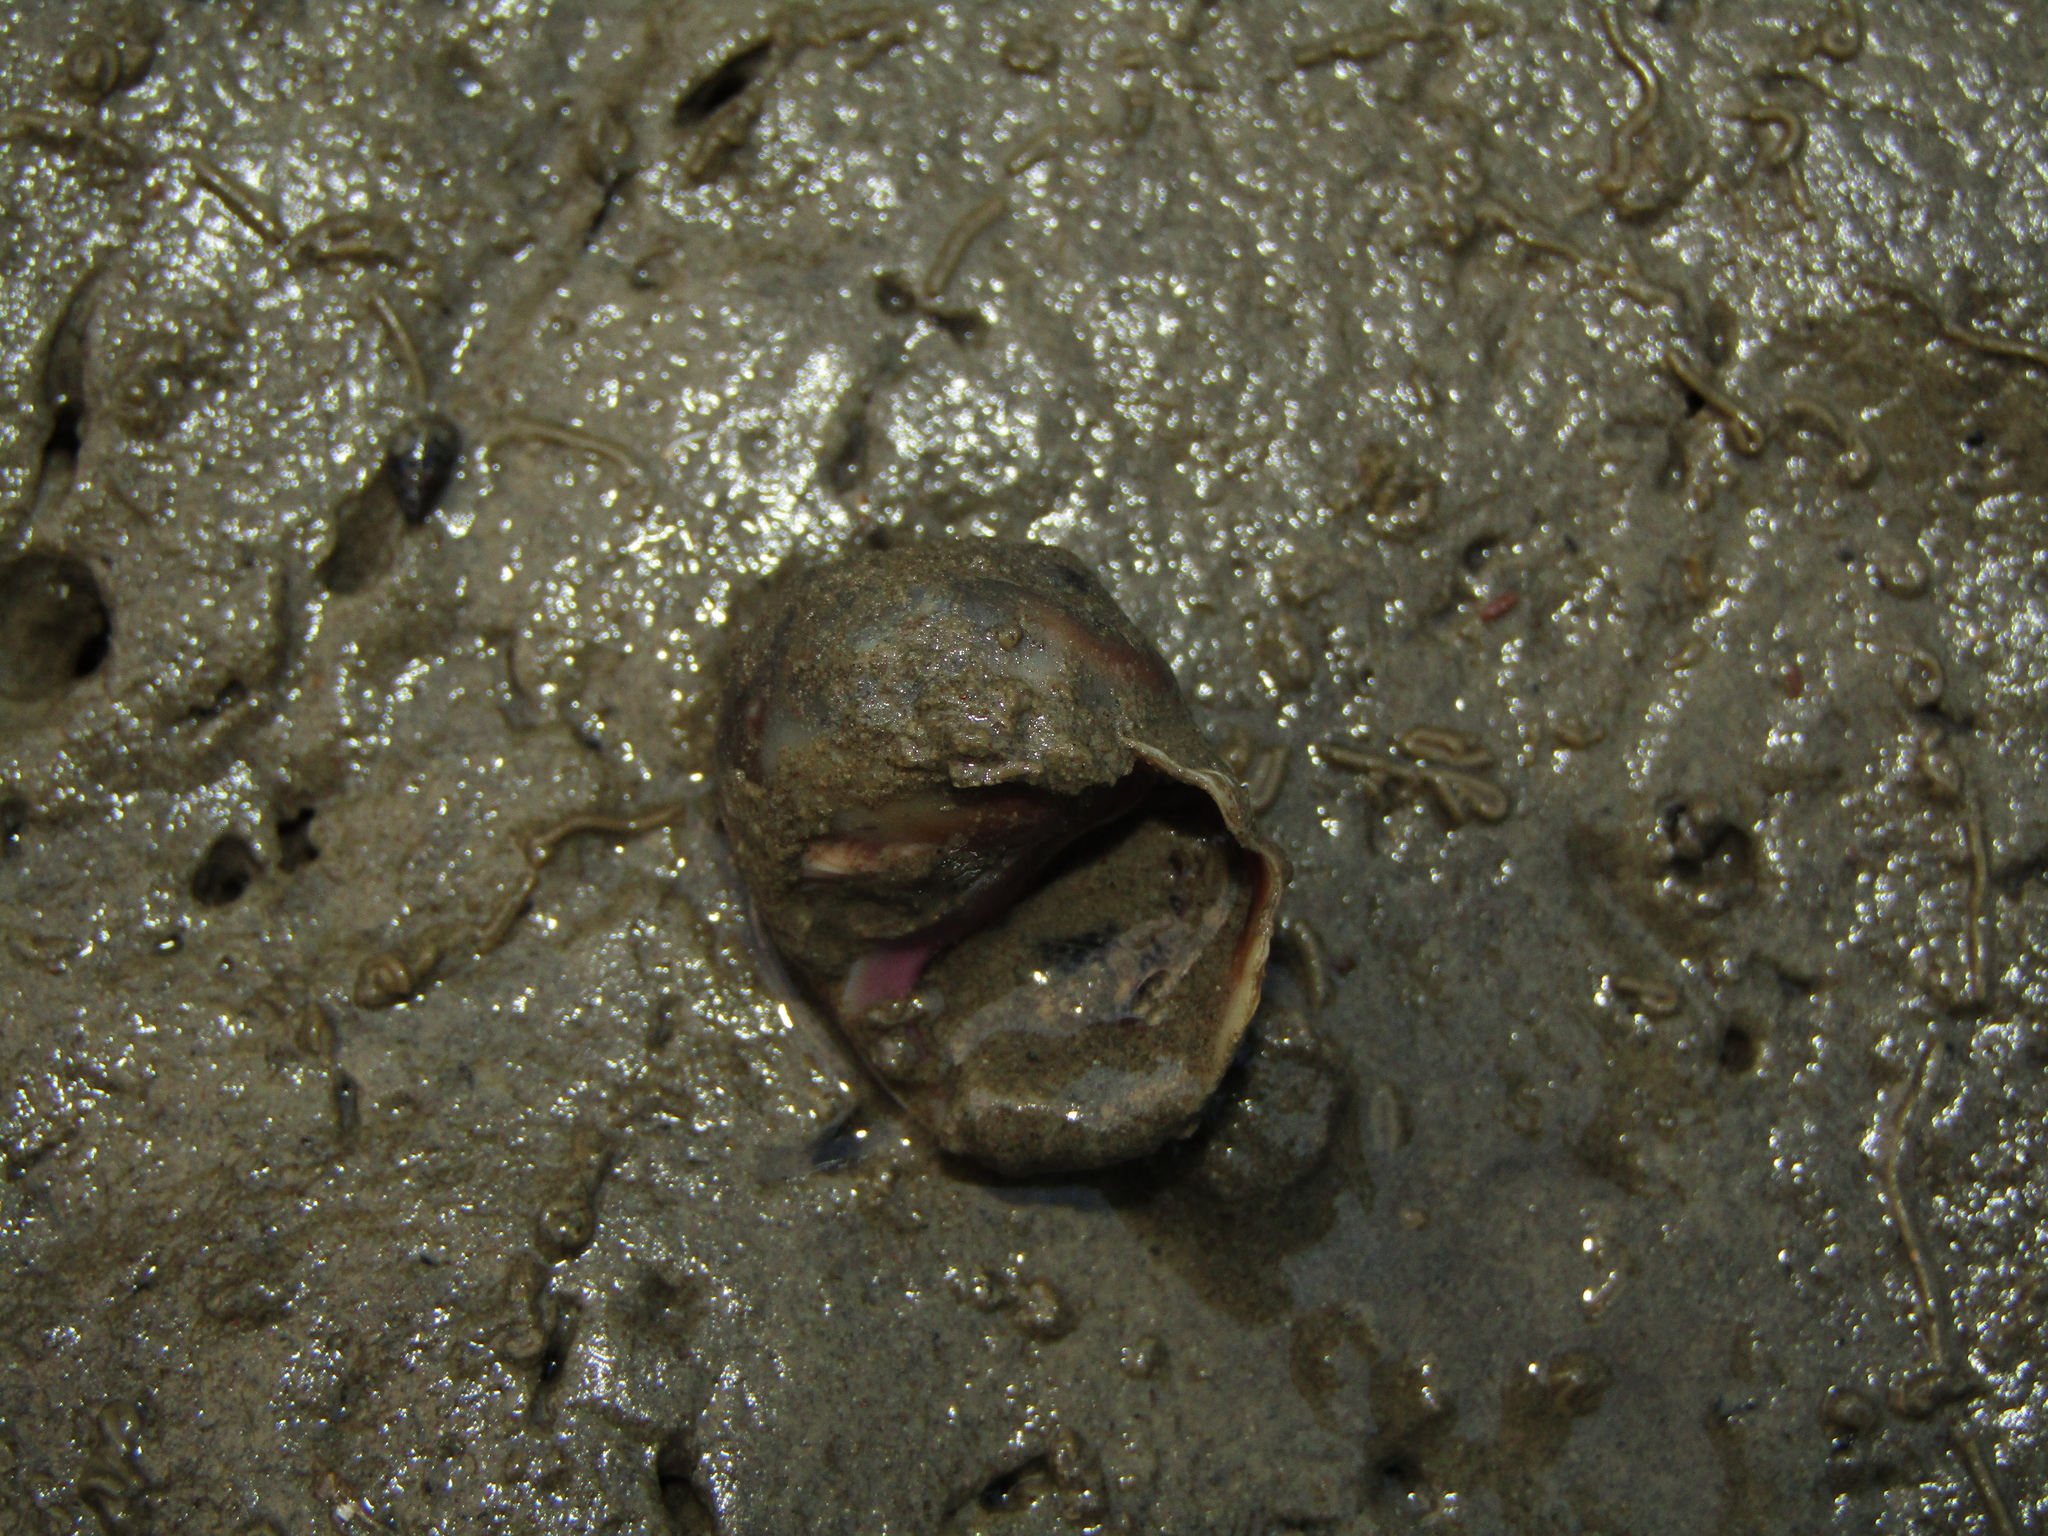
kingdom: Animalia
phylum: Mollusca
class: Gastropoda
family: Amphibolidae
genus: Amphibola
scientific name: Amphibola crenata
